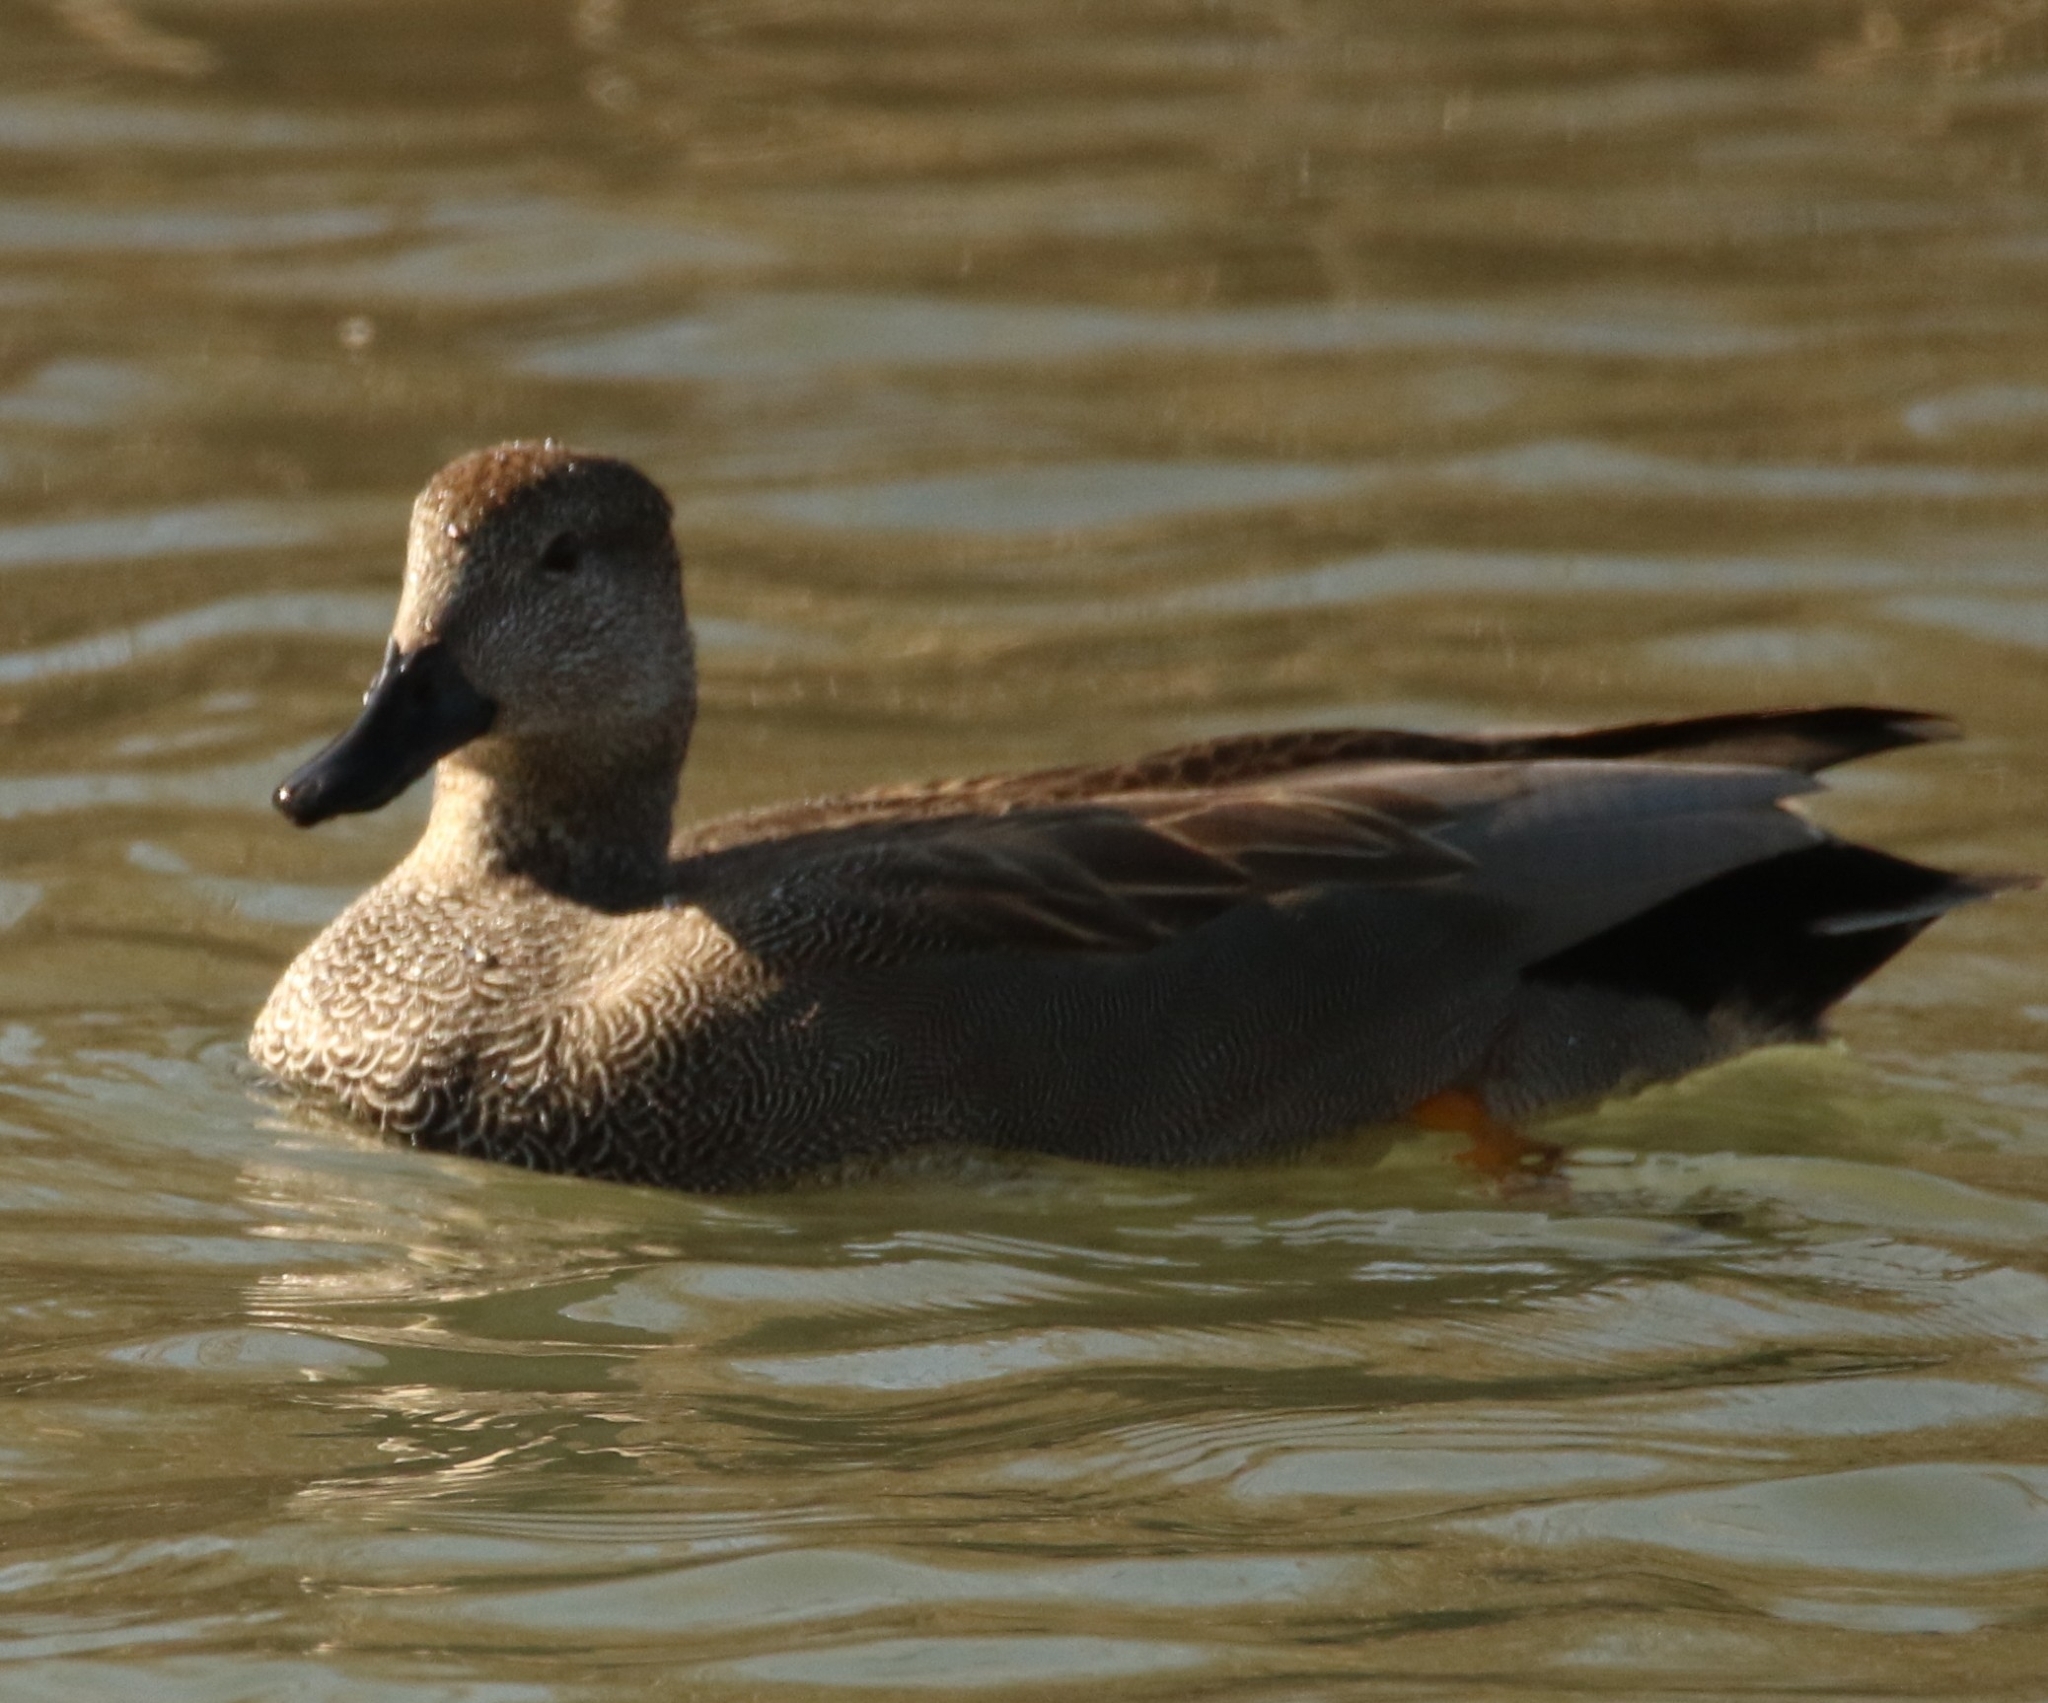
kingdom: Animalia
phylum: Chordata
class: Aves
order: Anseriformes
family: Anatidae
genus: Mareca
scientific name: Mareca strepera
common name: Gadwall
